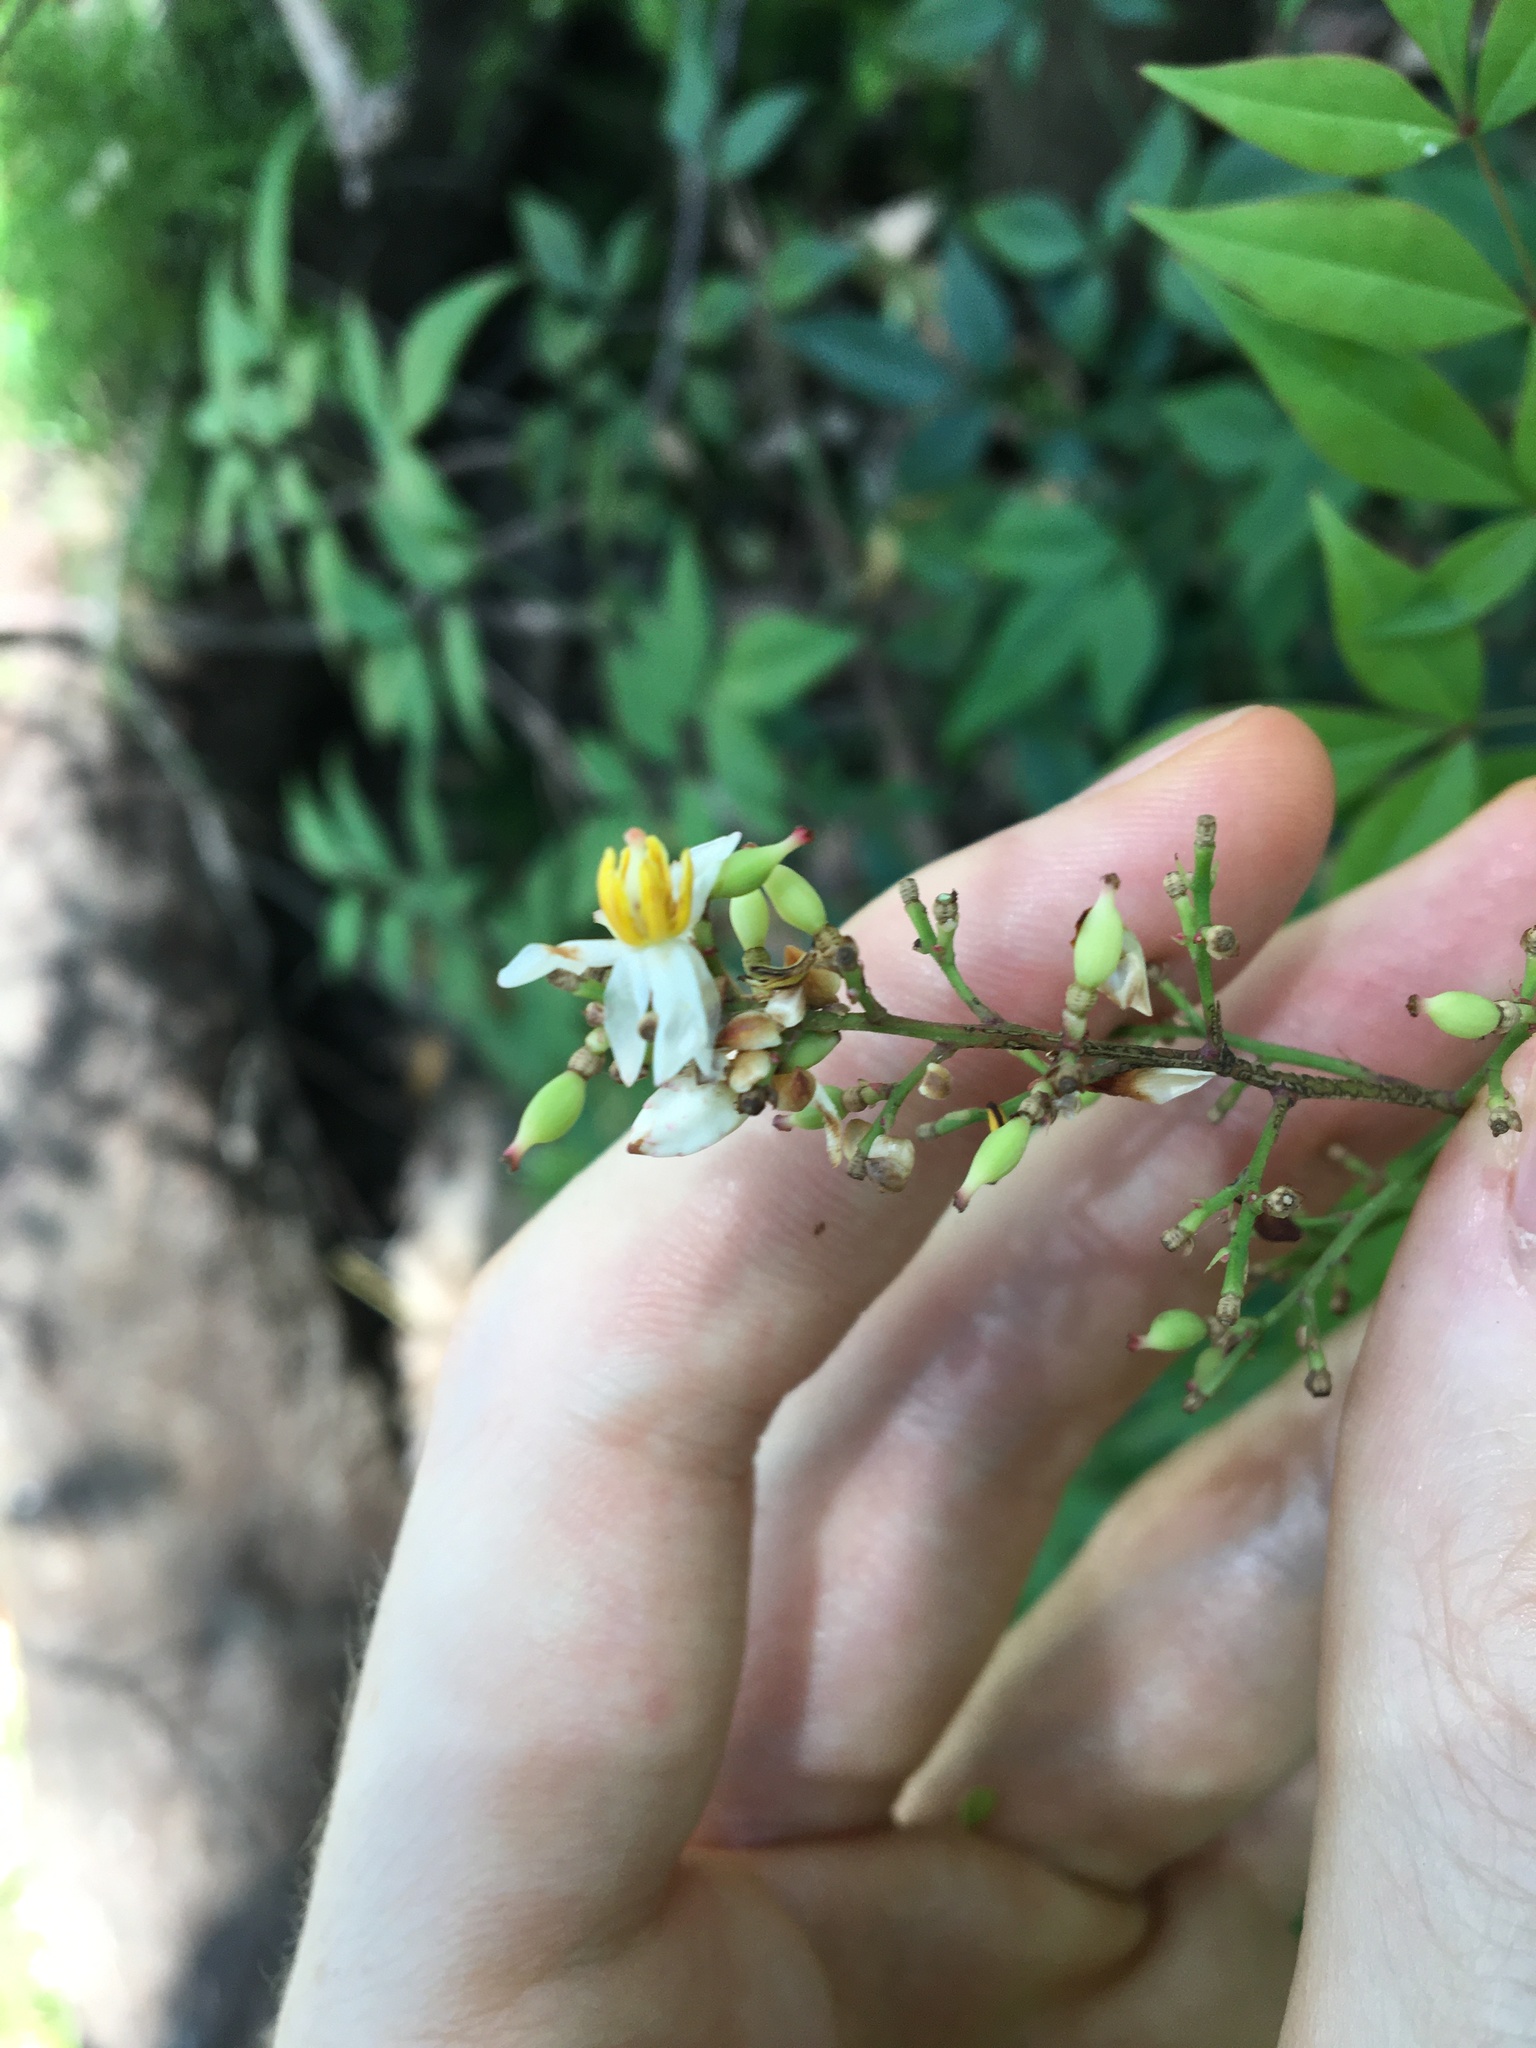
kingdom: Plantae
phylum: Tracheophyta
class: Magnoliopsida
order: Ranunculales
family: Berberidaceae
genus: Nandina
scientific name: Nandina domestica
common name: Sacred bamboo
